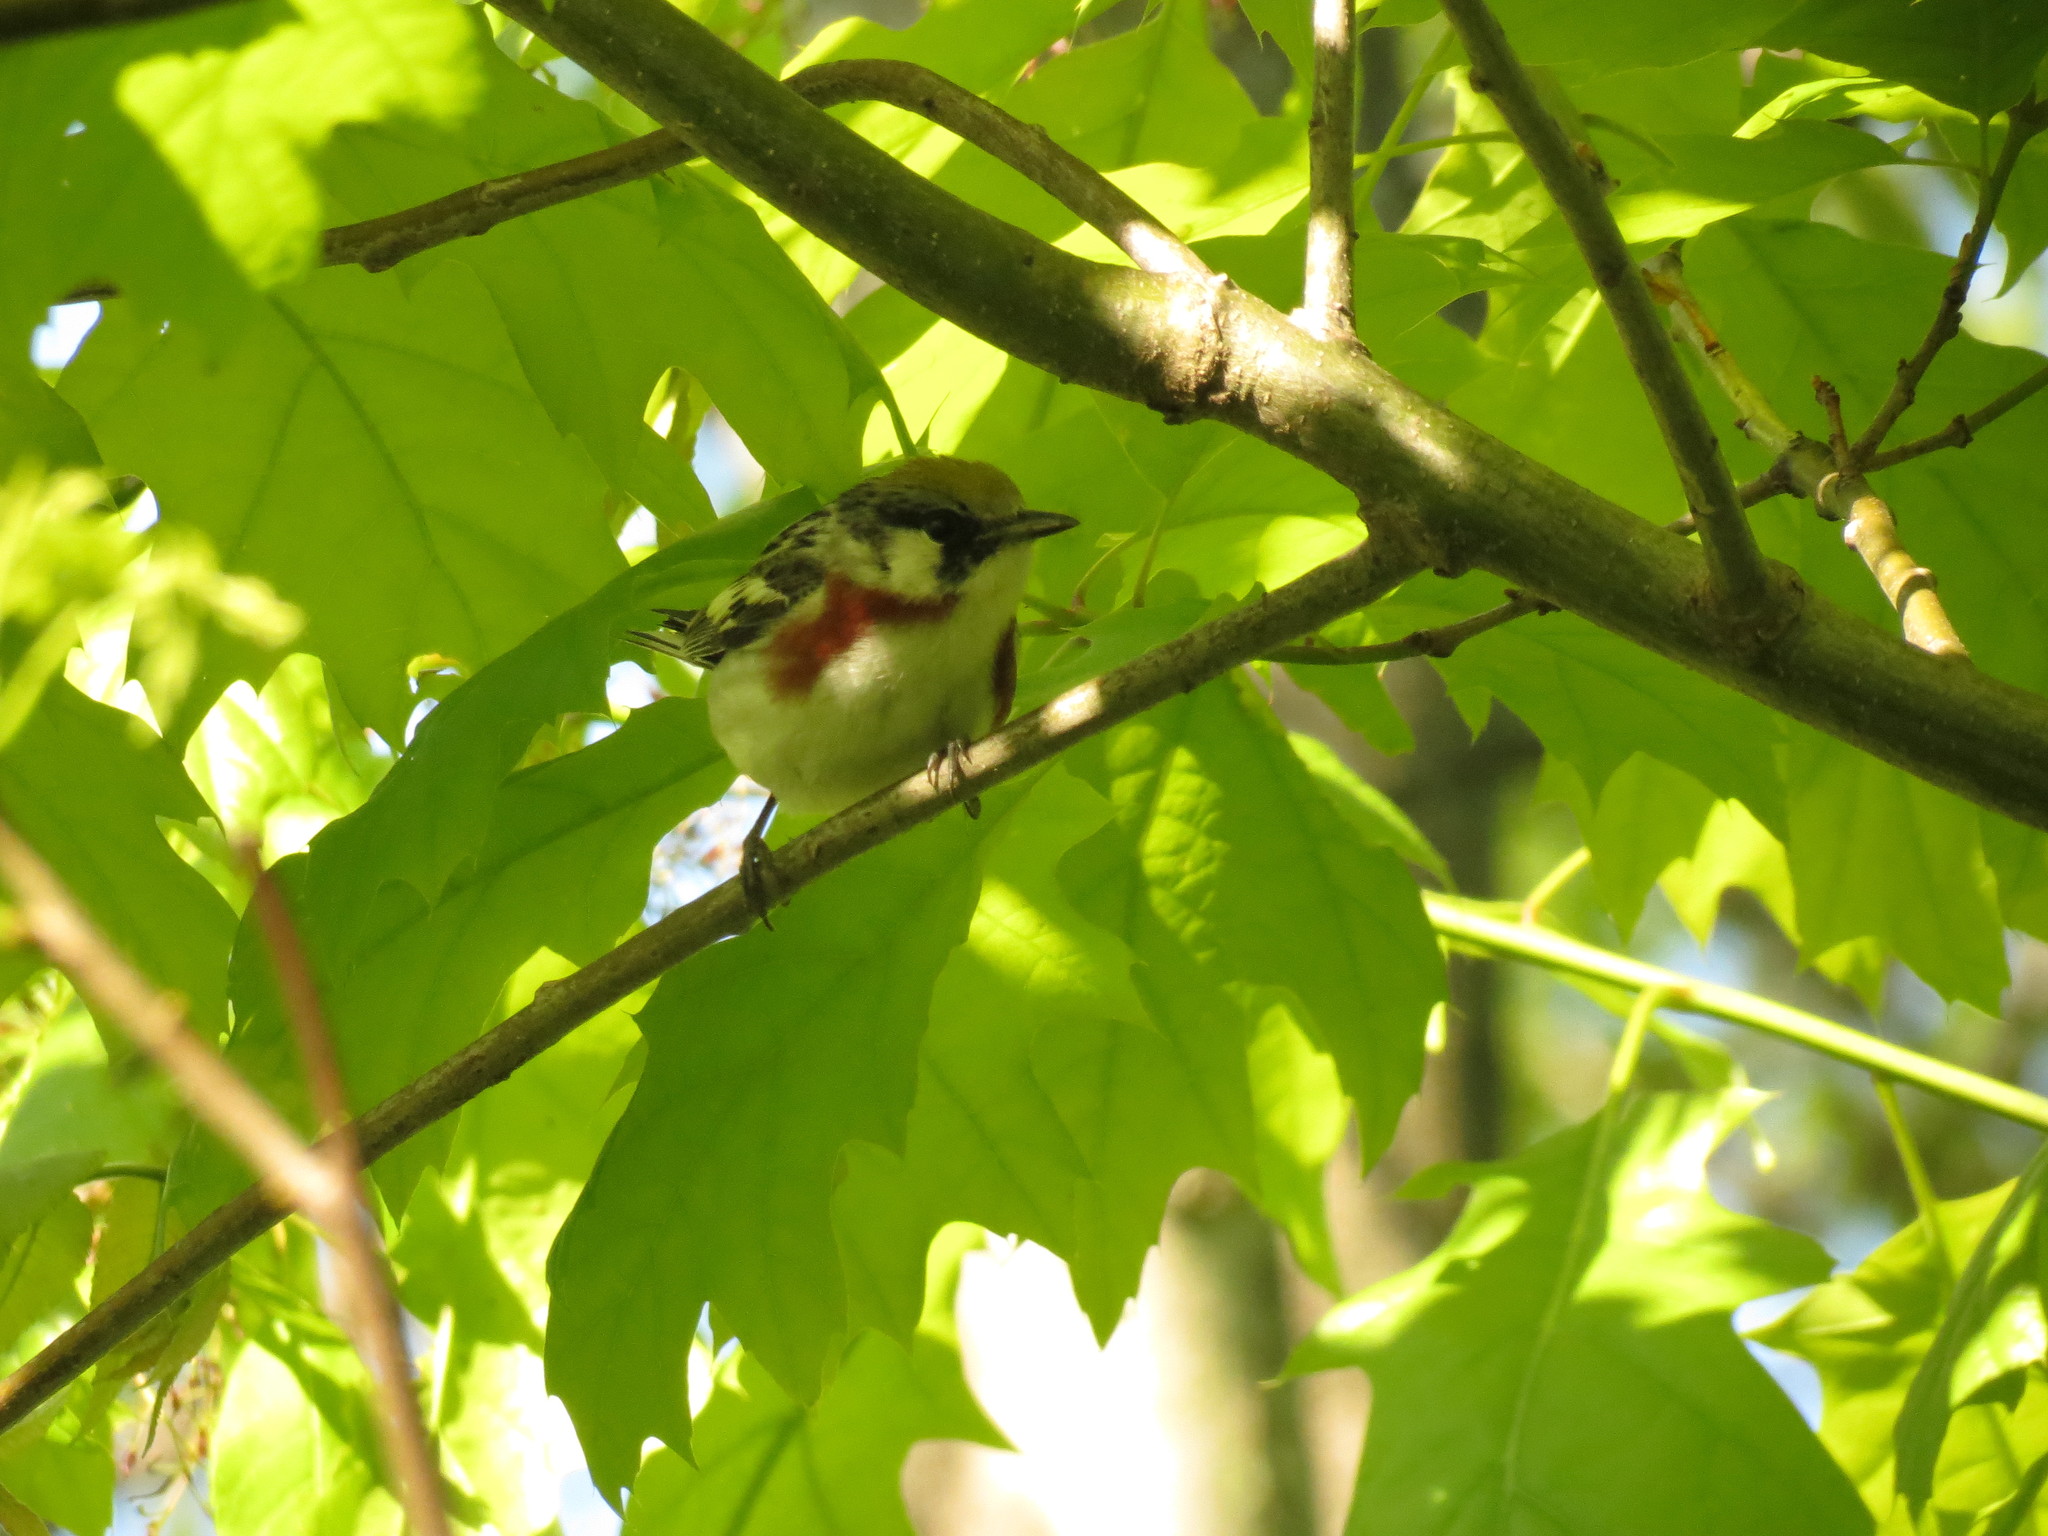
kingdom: Animalia
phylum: Chordata
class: Aves
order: Passeriformes
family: Parulidae
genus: Setophaga
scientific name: Setophaga pensylvanica
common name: Chestnut-sided warbler
